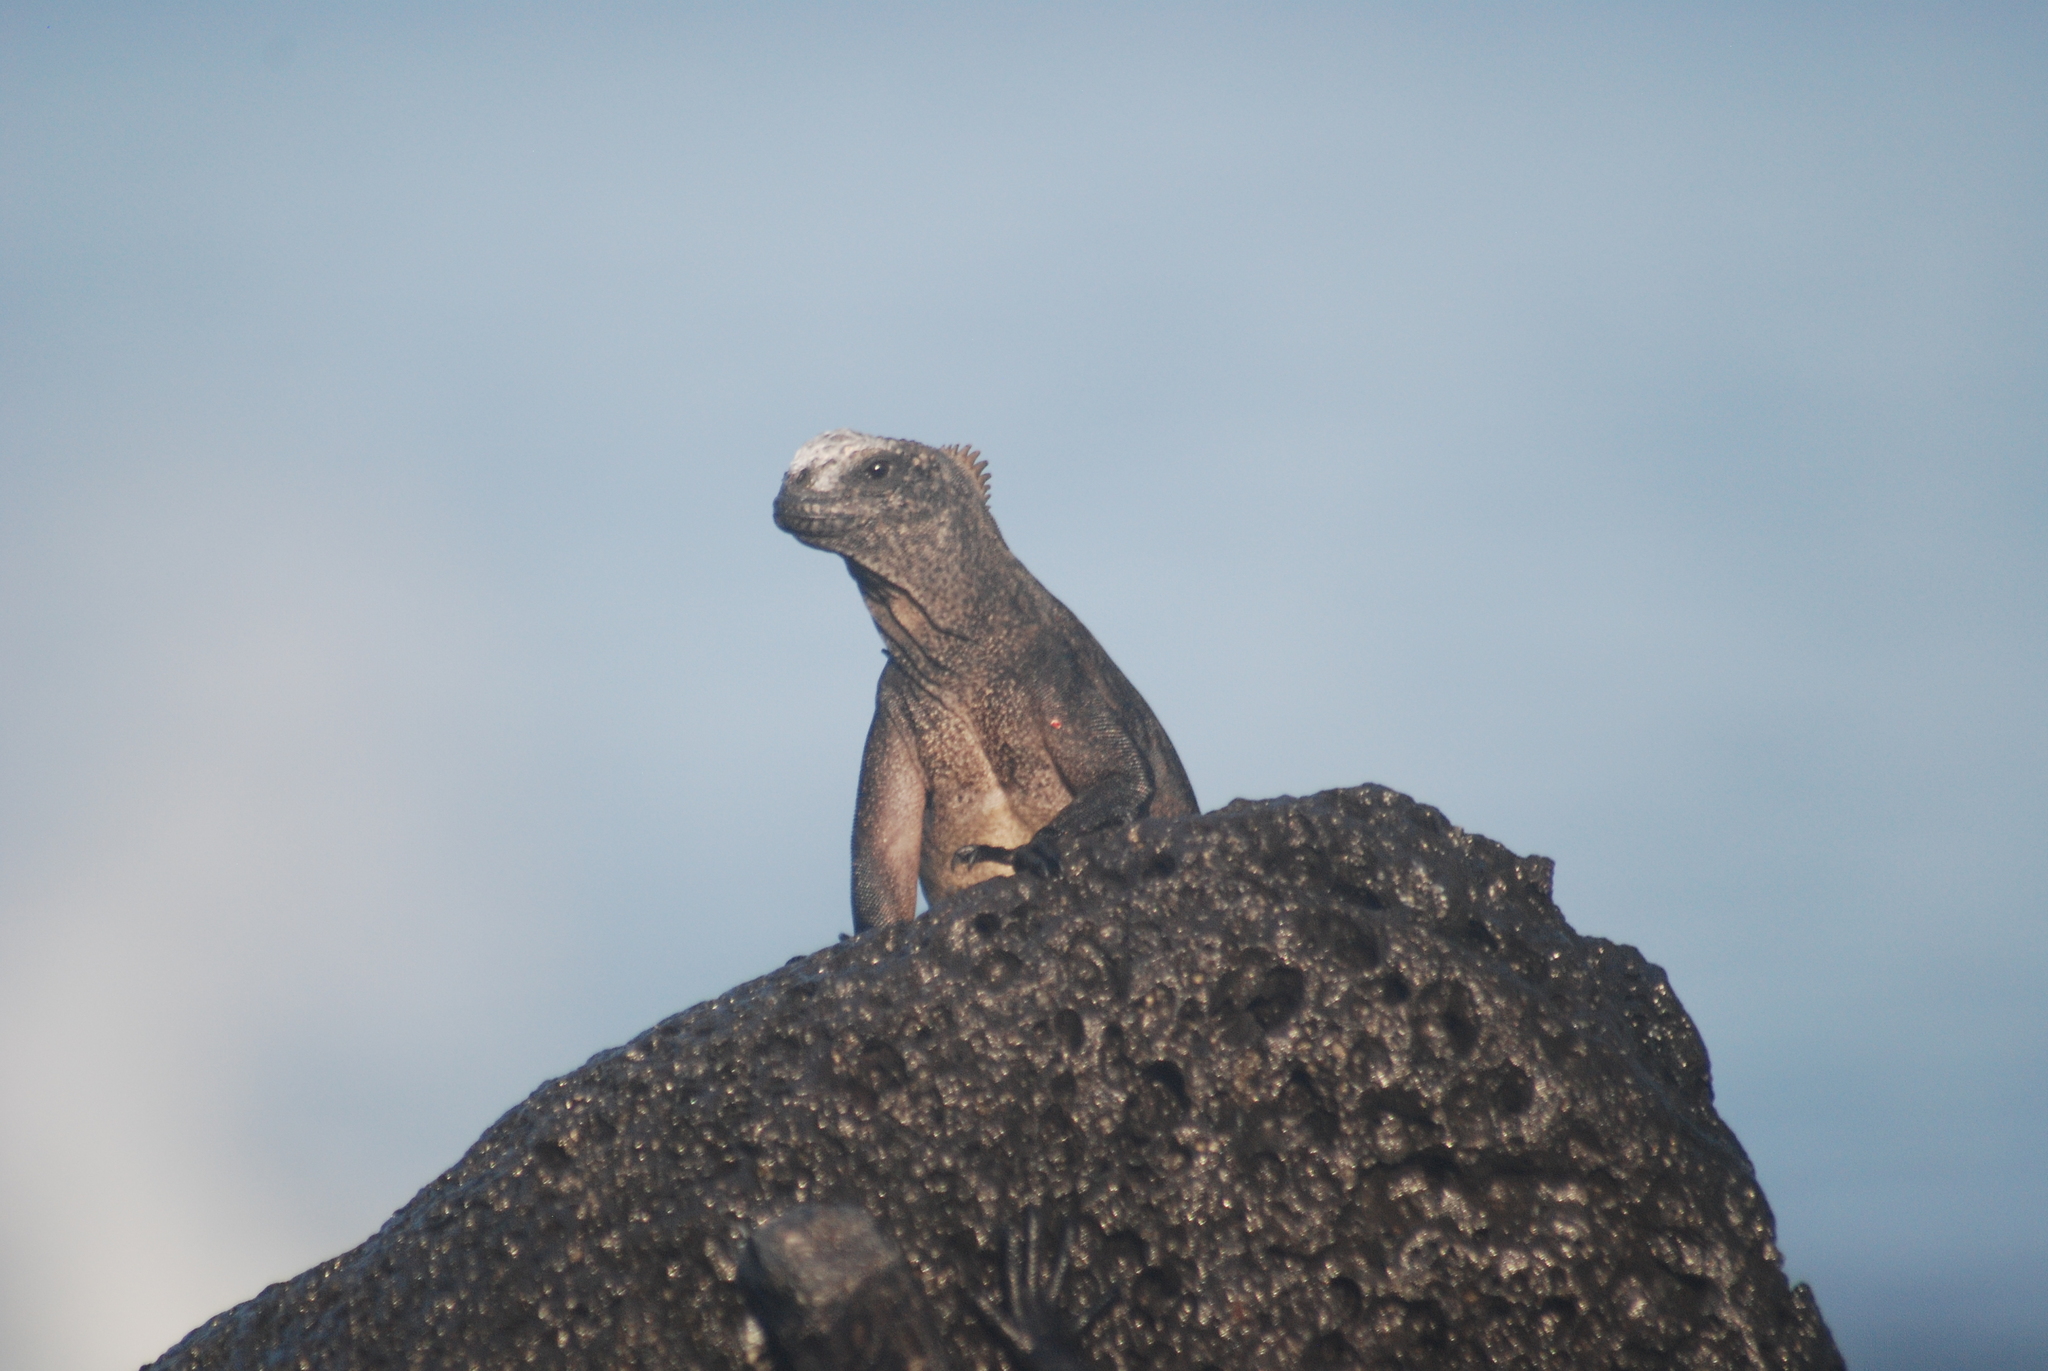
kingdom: Animalia
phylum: Chordata
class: Squamata
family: Iguanidae
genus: Amblyrhynchus
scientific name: Amblyrhynchus cristatus
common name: Marine iguana
